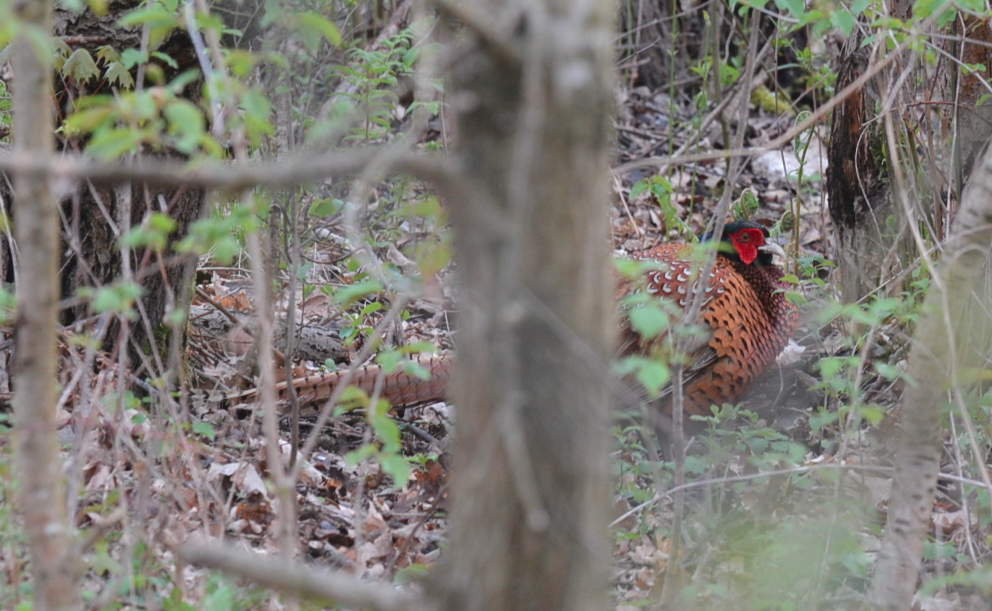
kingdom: Animalia
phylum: Chordata
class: Aves
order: Galliformes
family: Phasianidae
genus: Phasianus
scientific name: Phasianus colchicus
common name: Common pheasant
